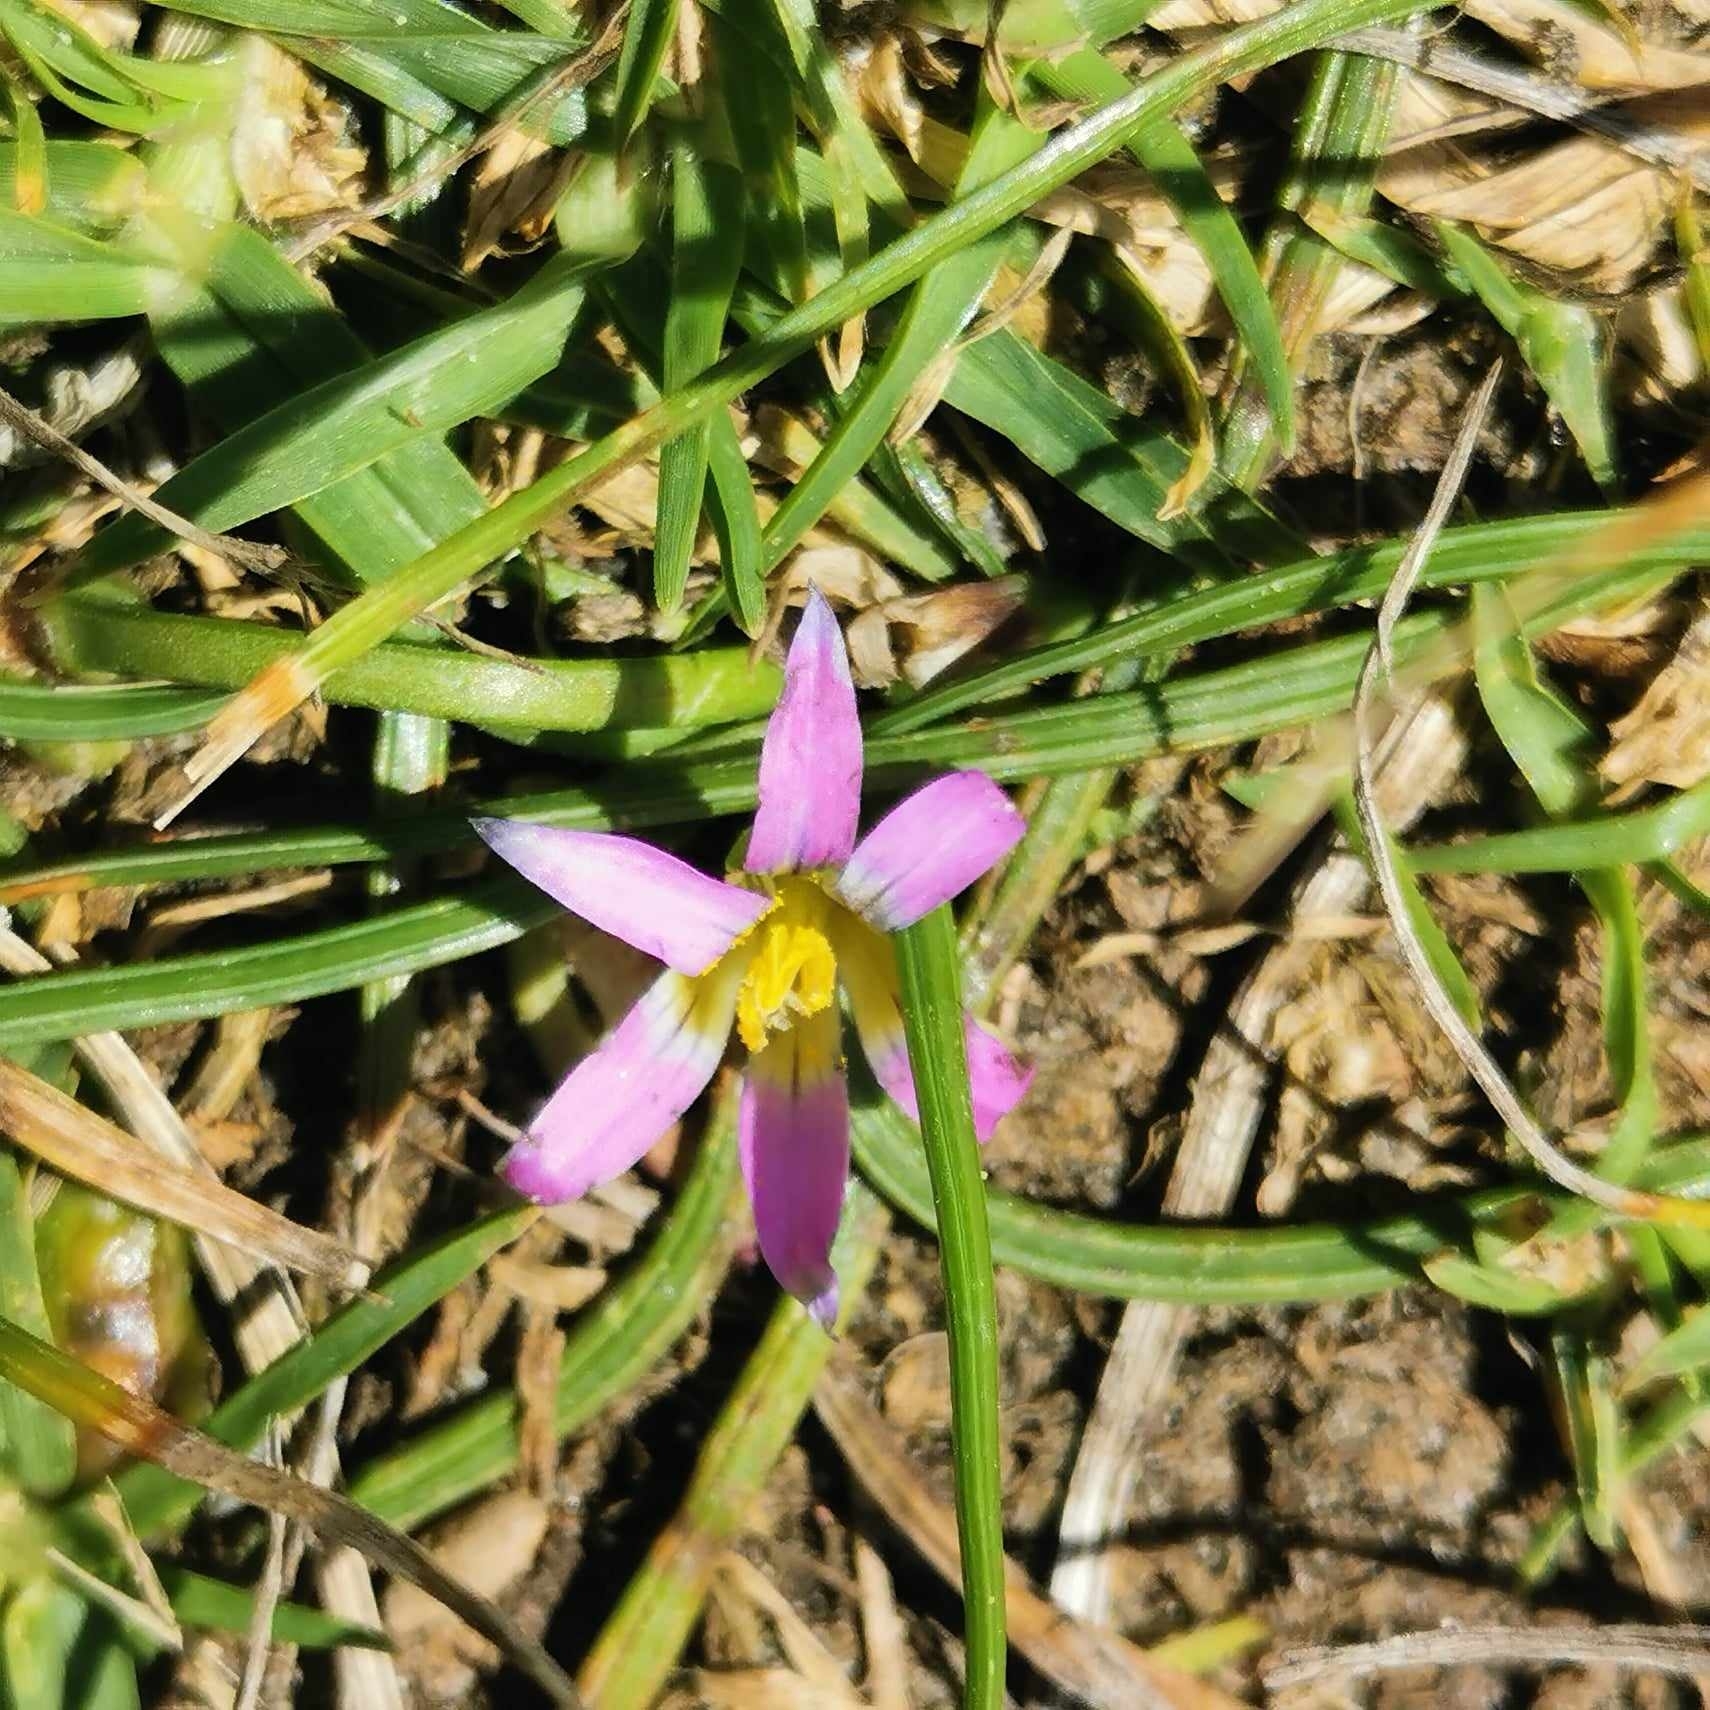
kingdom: Plantae
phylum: Tracheophyta
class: Liliopsida
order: Asparagales
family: Iridaceae
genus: Romulea
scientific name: Romulea rosea
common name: Oniongrass
